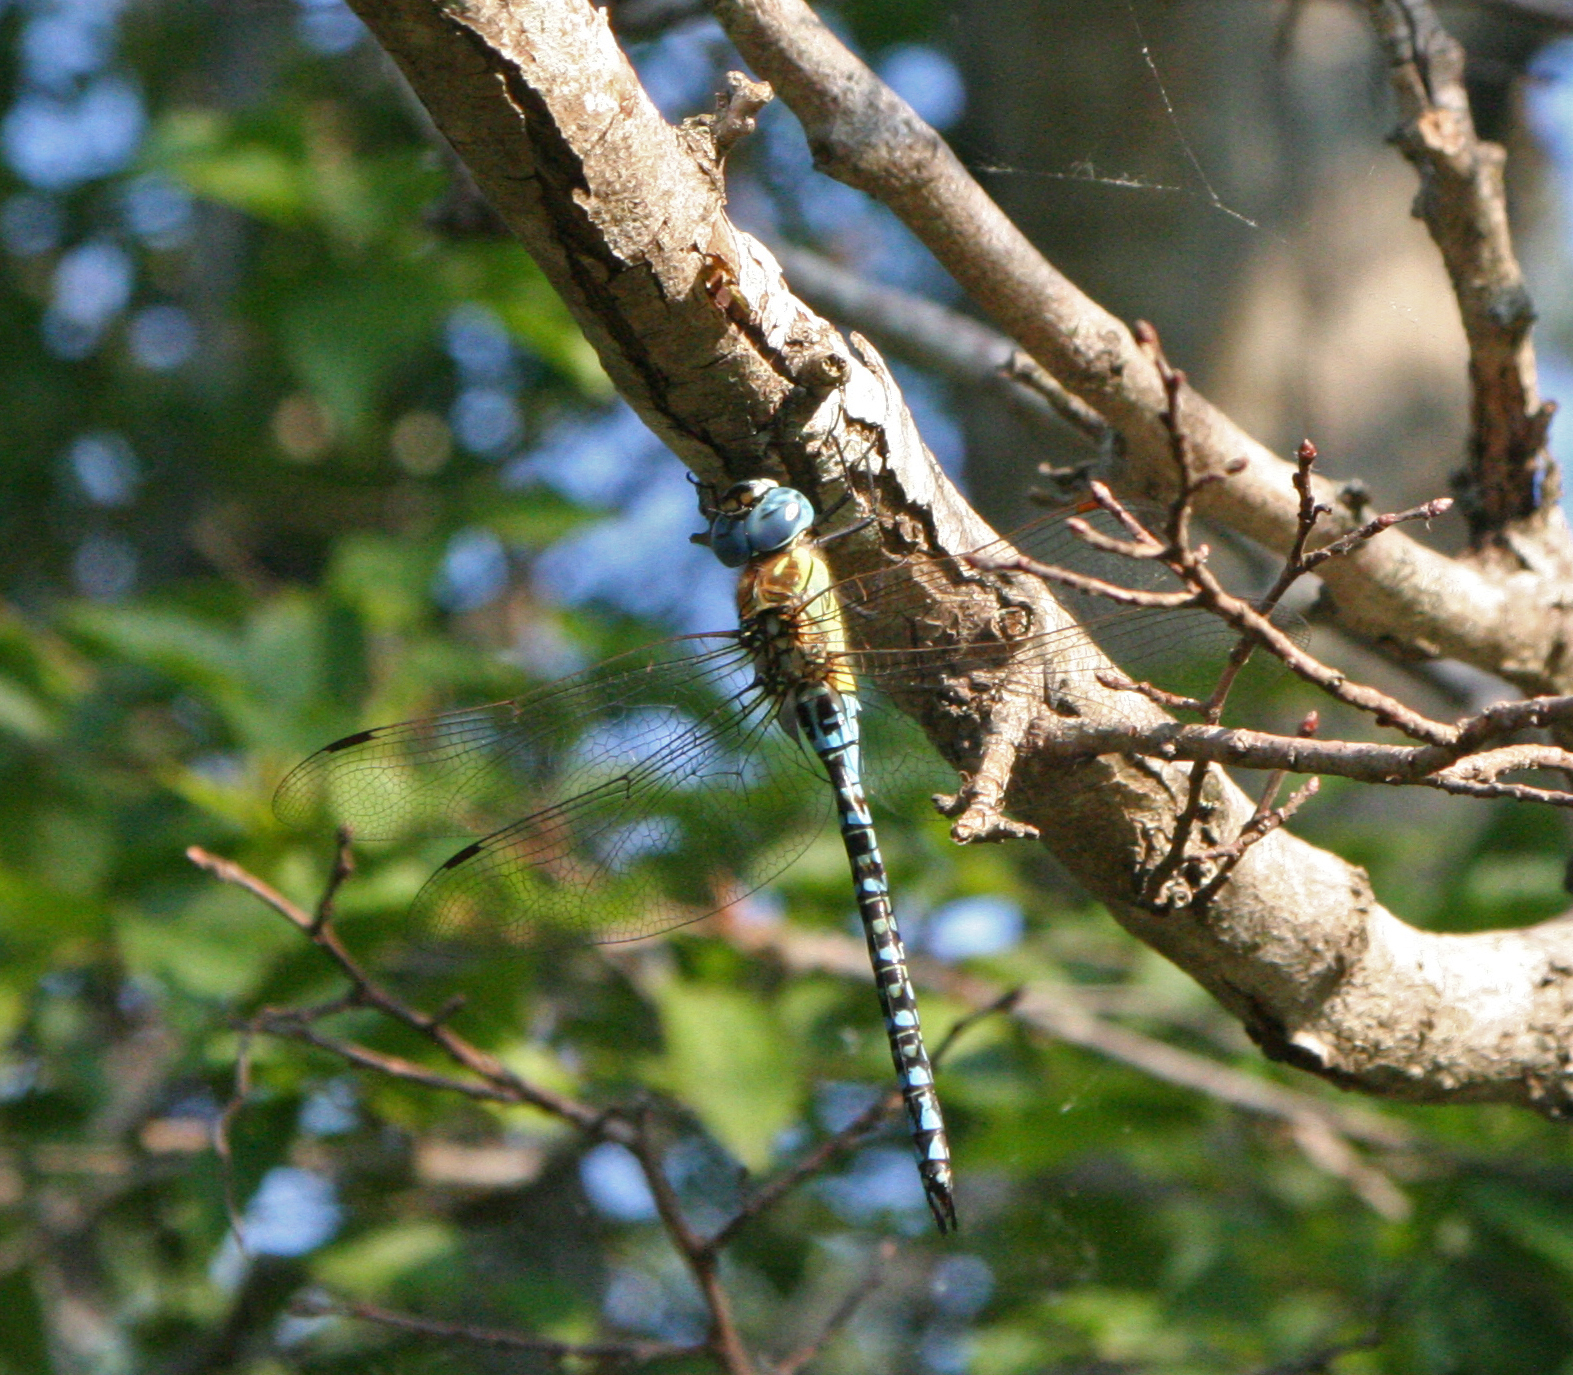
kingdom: Animalia
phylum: Arthropoda
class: Insecta
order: Odonata
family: Aeshnidae
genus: Aeshna
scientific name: Aeshna affinis
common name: Southern migrant hawker
